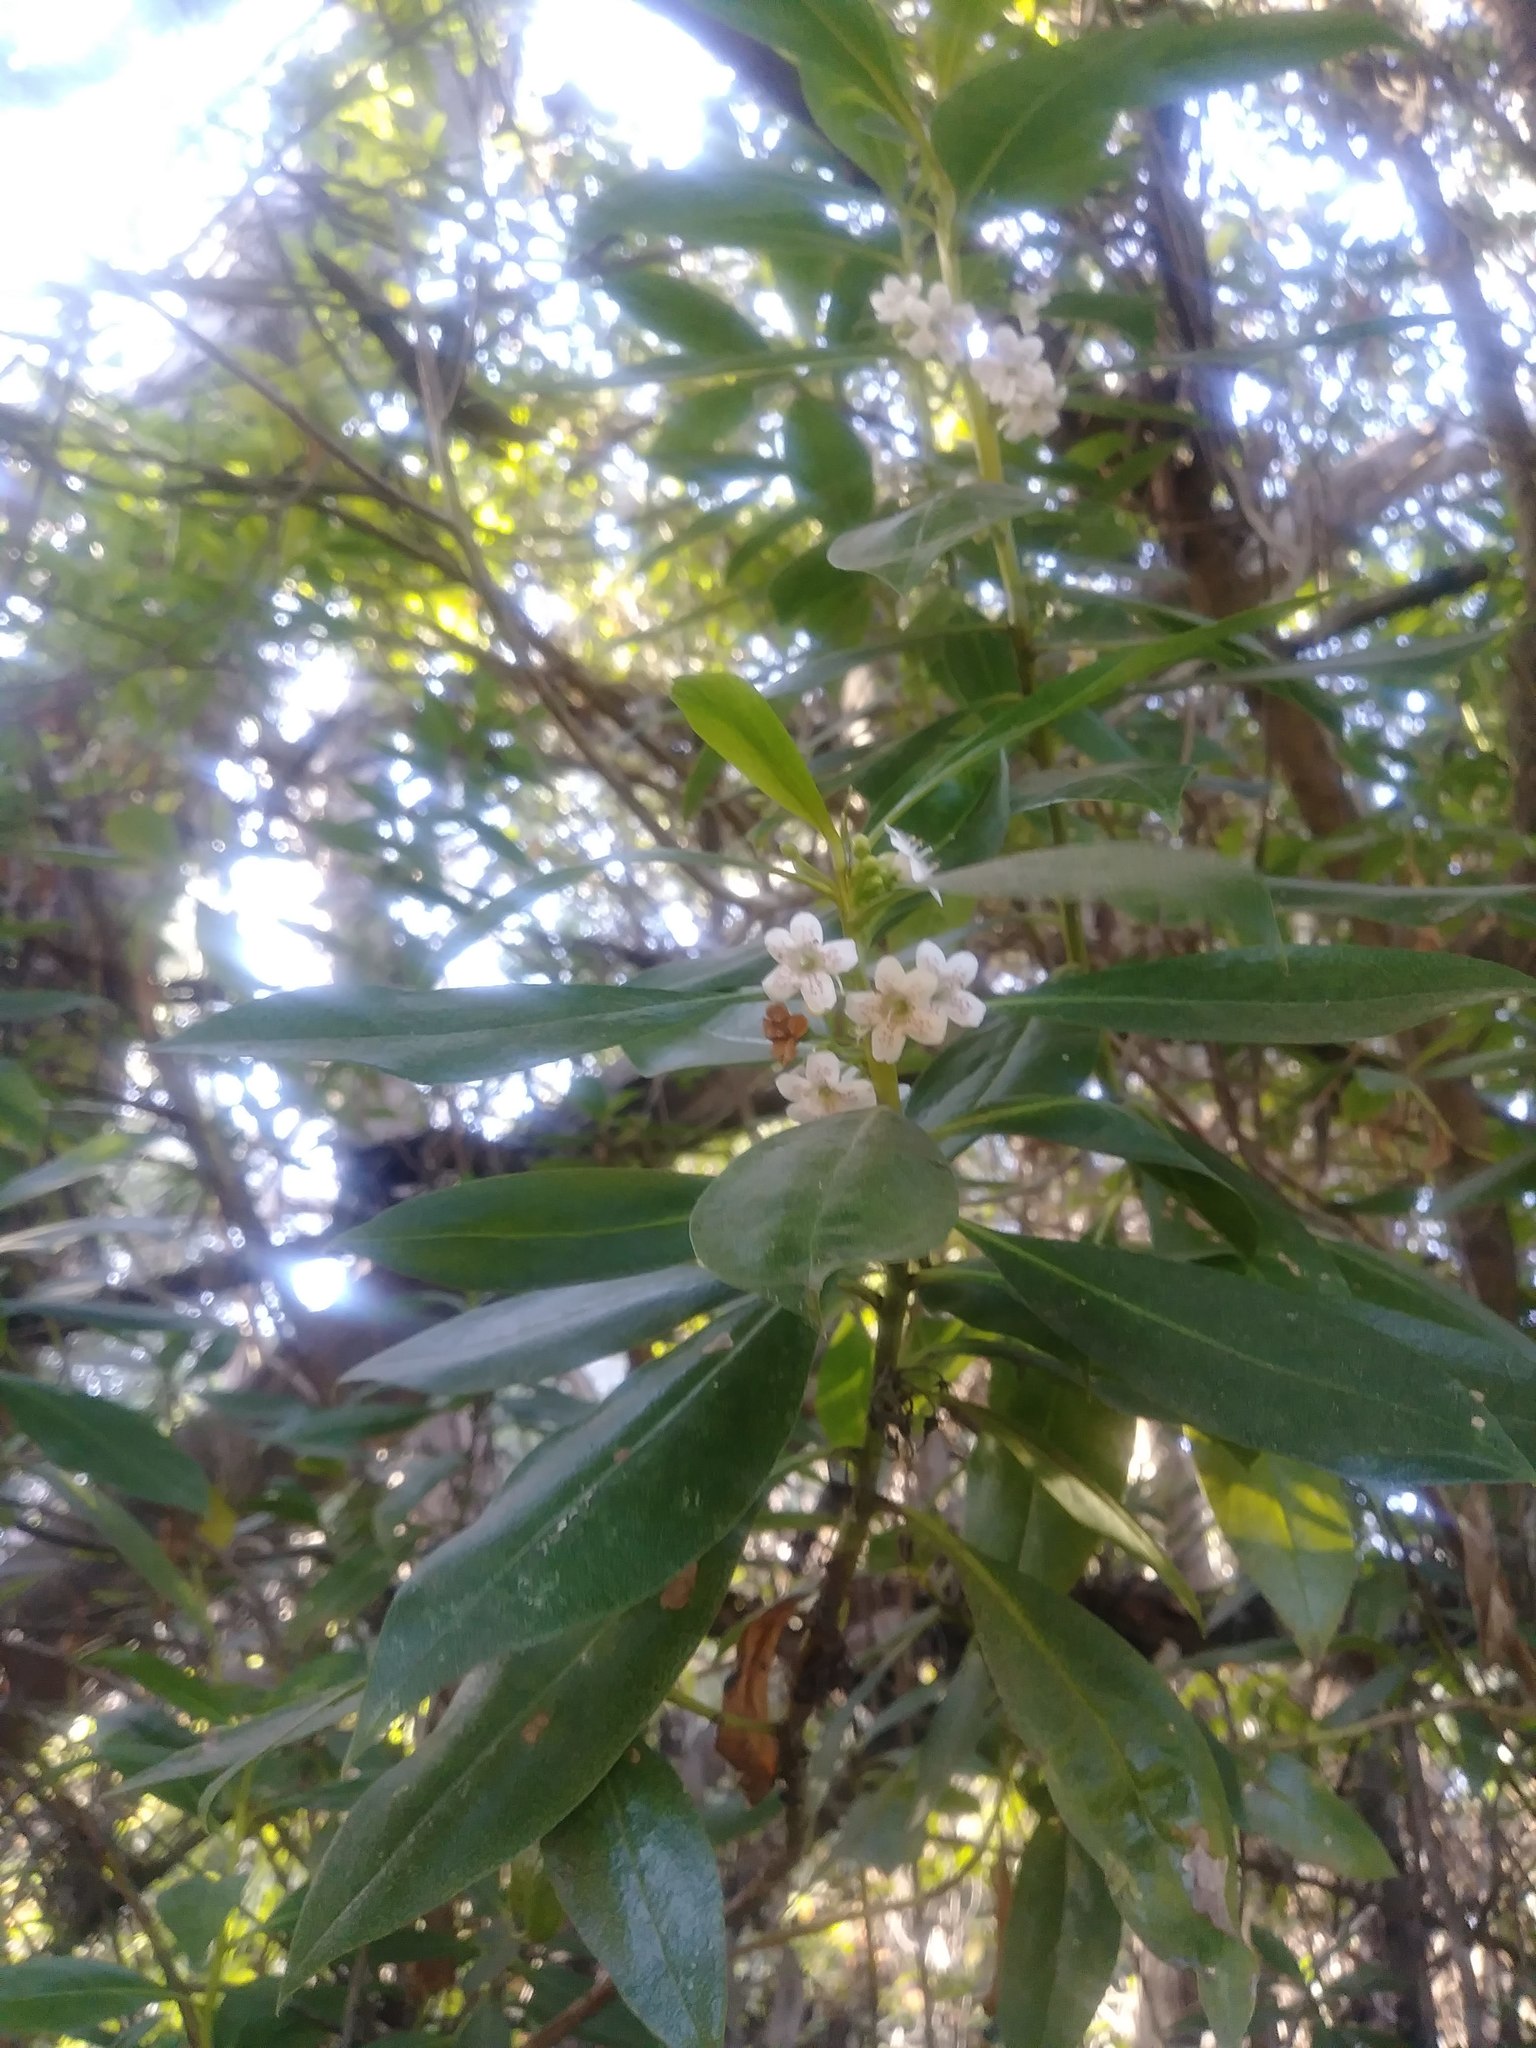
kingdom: Plantae
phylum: Tracheophyta
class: Magnoliopsida
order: Lamiales
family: Scrophulariaceae
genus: Myoporum
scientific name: Myoporum laetum
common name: Ngaio tree
